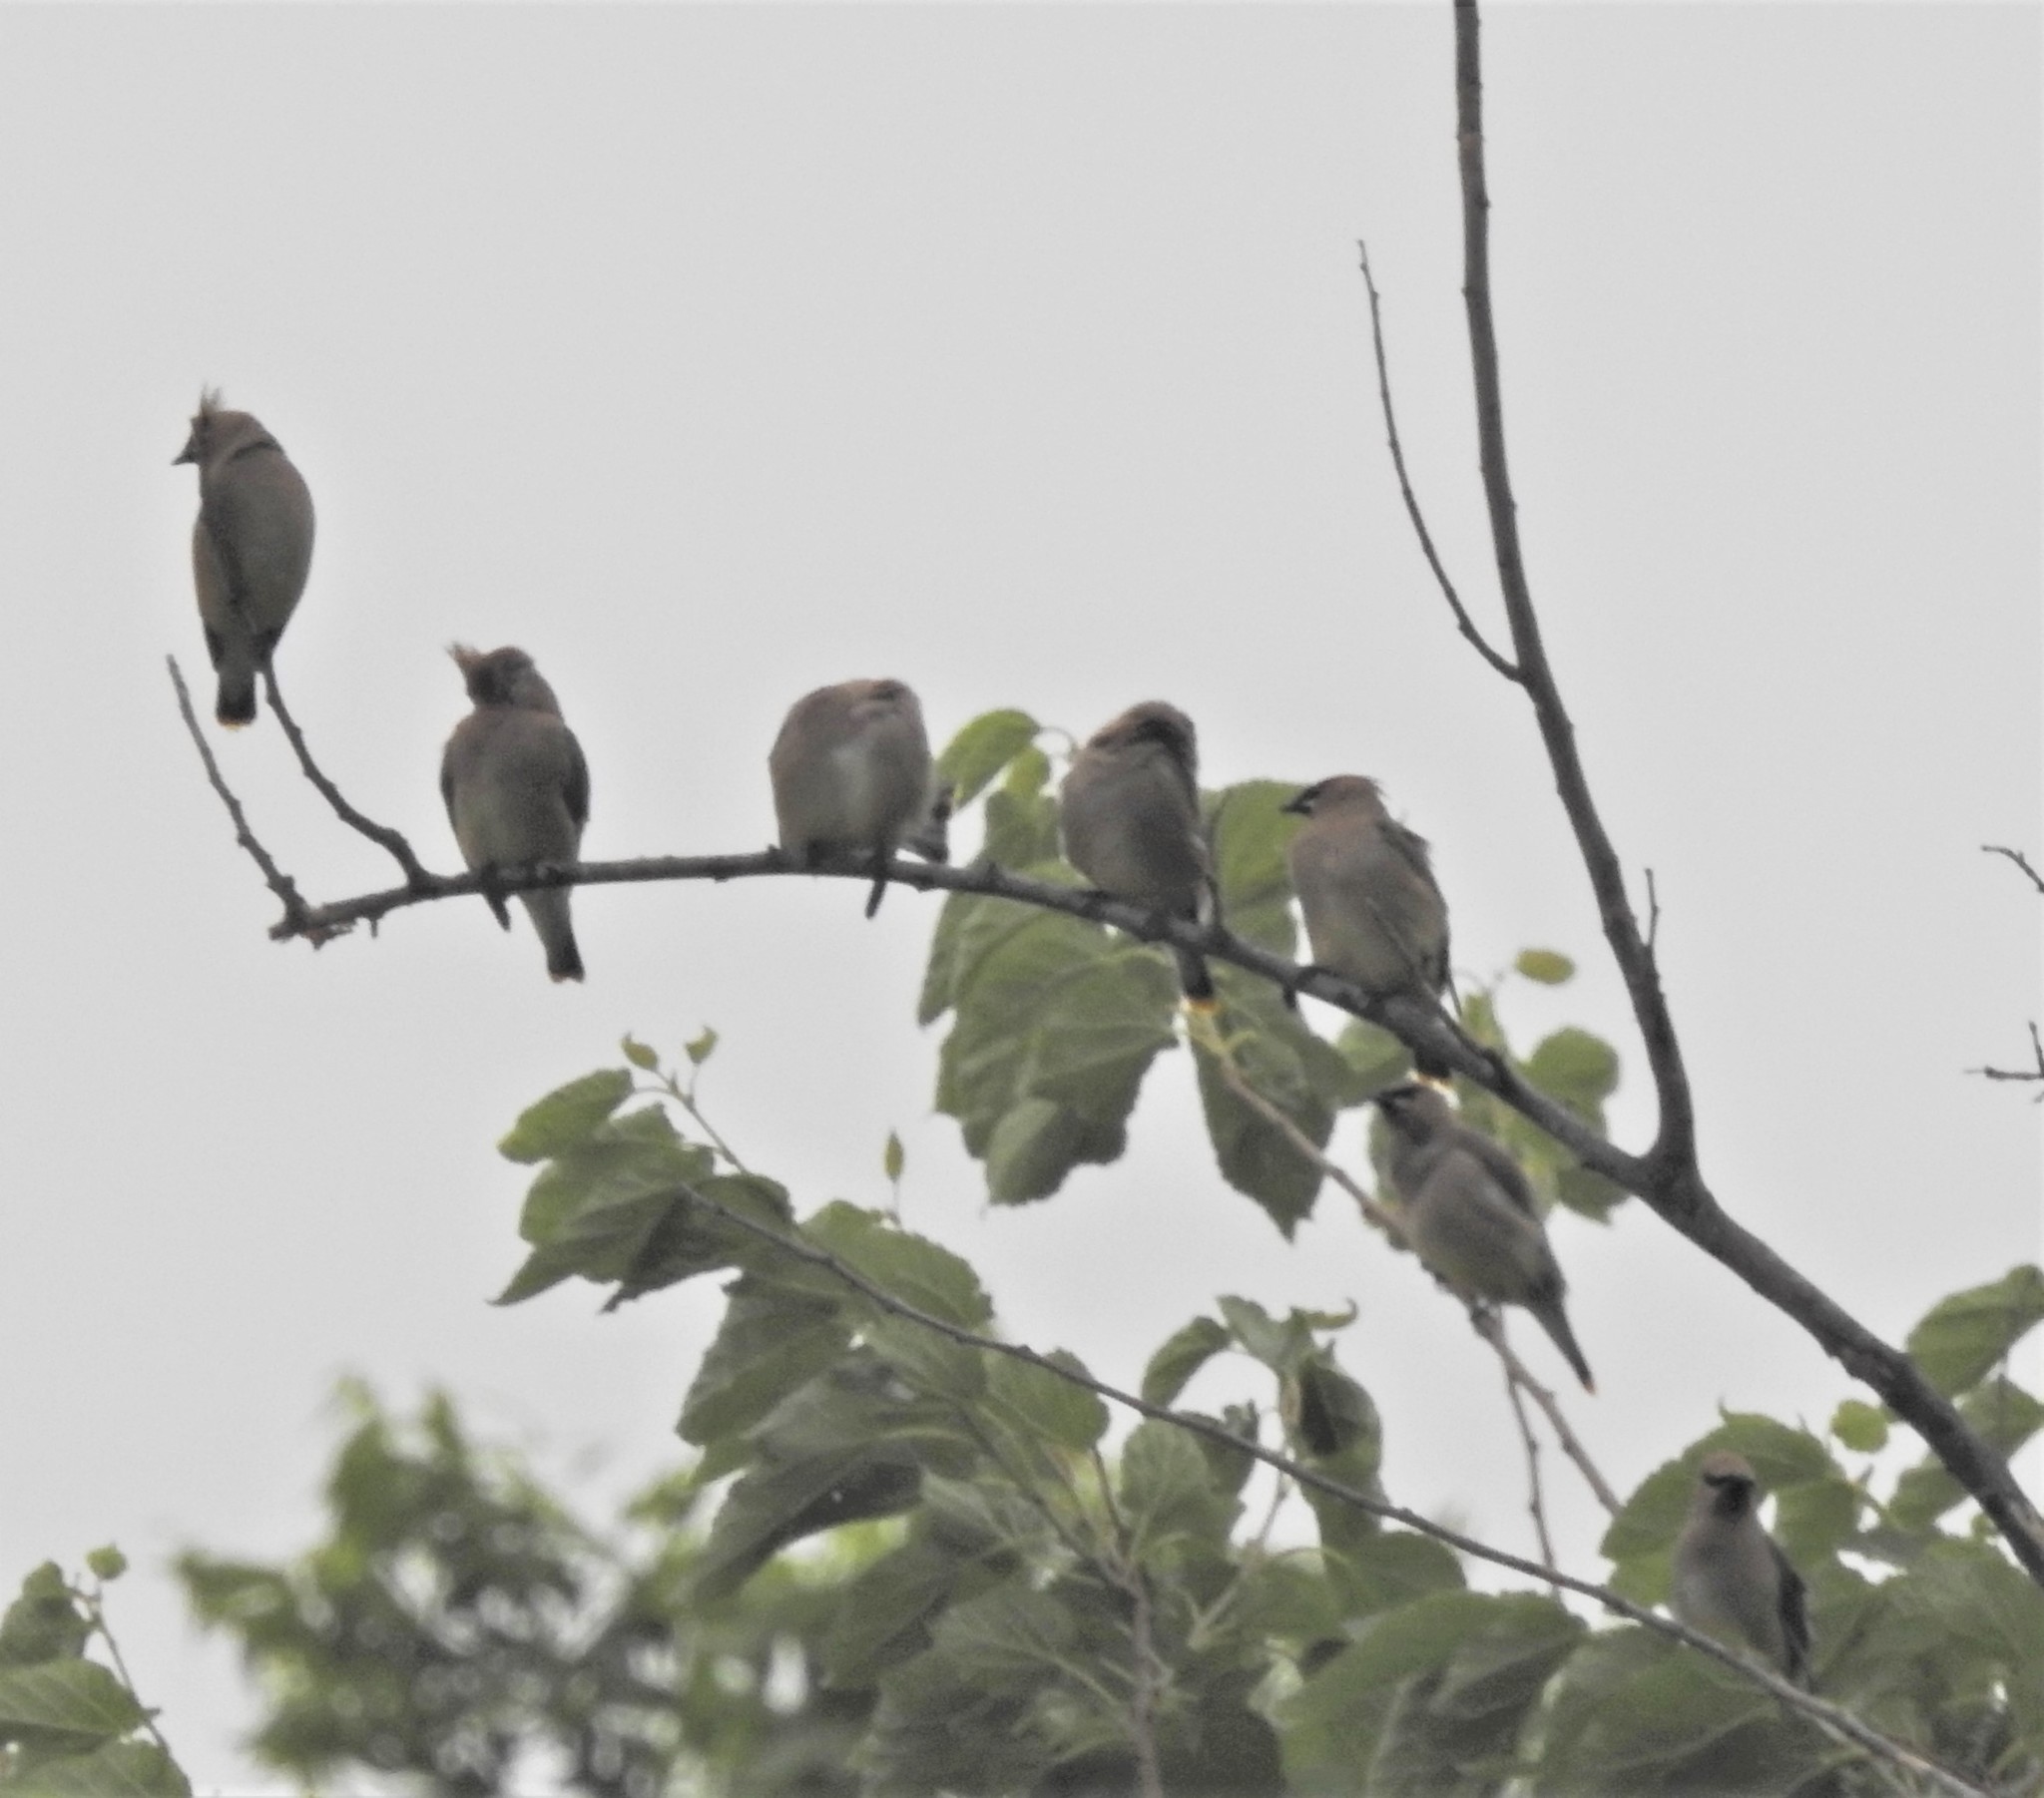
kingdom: Animalia
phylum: Chordata
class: Aves
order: Passeriformes
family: Bombycillidae
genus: Bombycilla
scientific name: Bombycilla cedrorum
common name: Cedar waxwing
